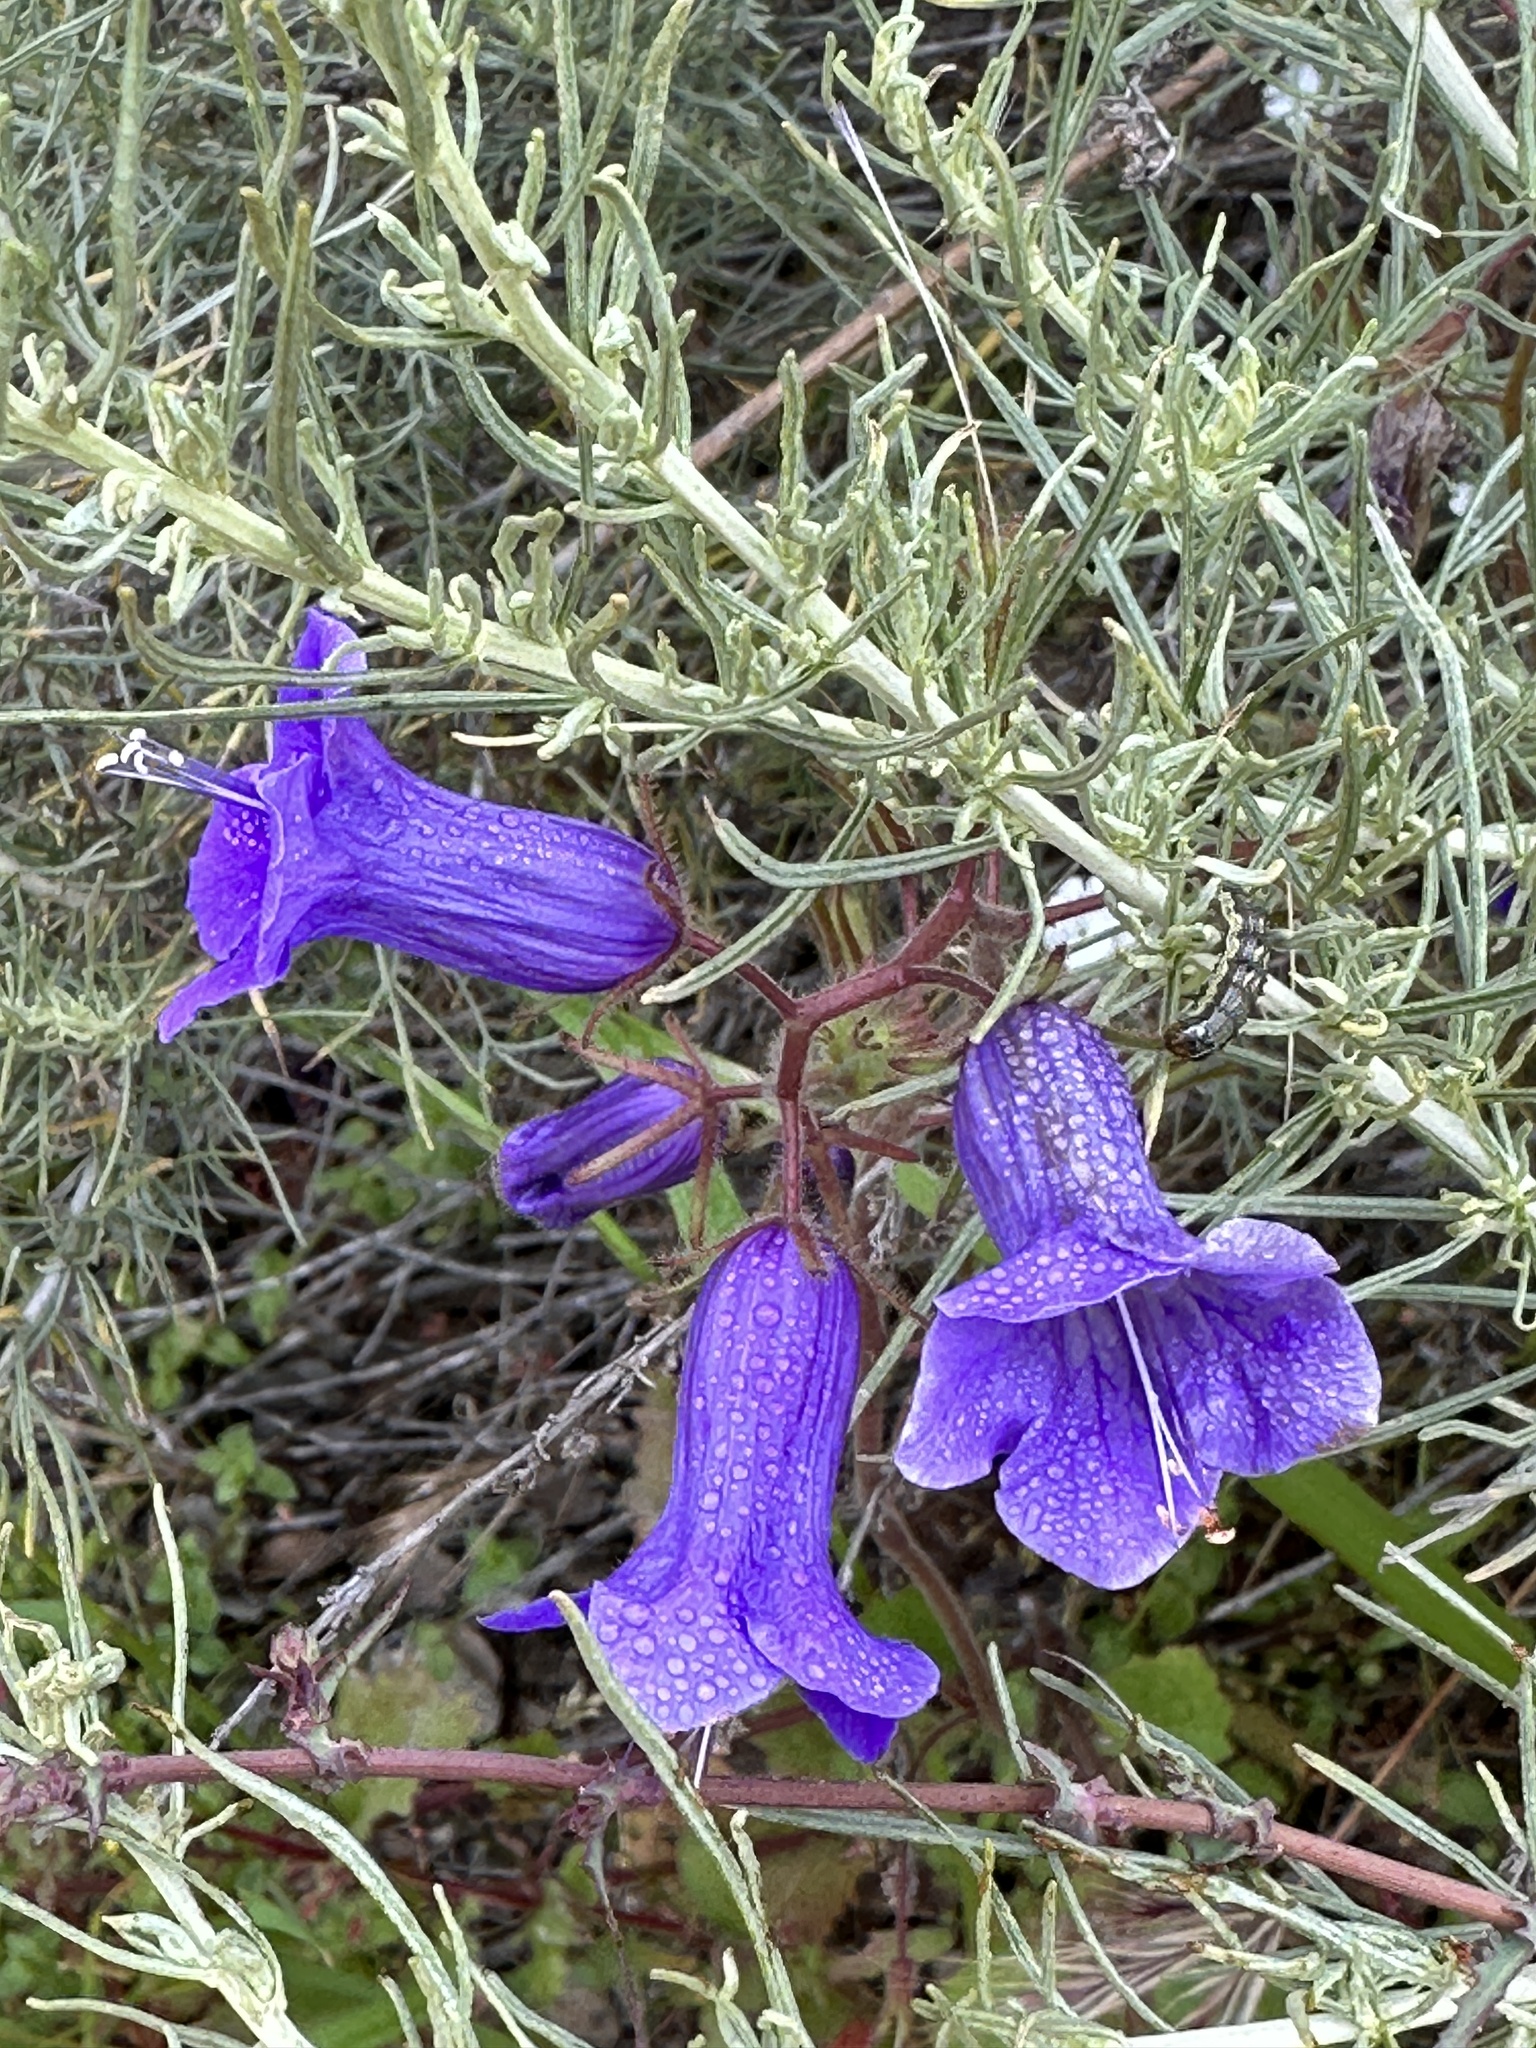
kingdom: Plantae
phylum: Tracheophyta
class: Magnoliopsida
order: Boraginales
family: Hydrophyllaceae
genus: Phacelia
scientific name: Phacelia minor
